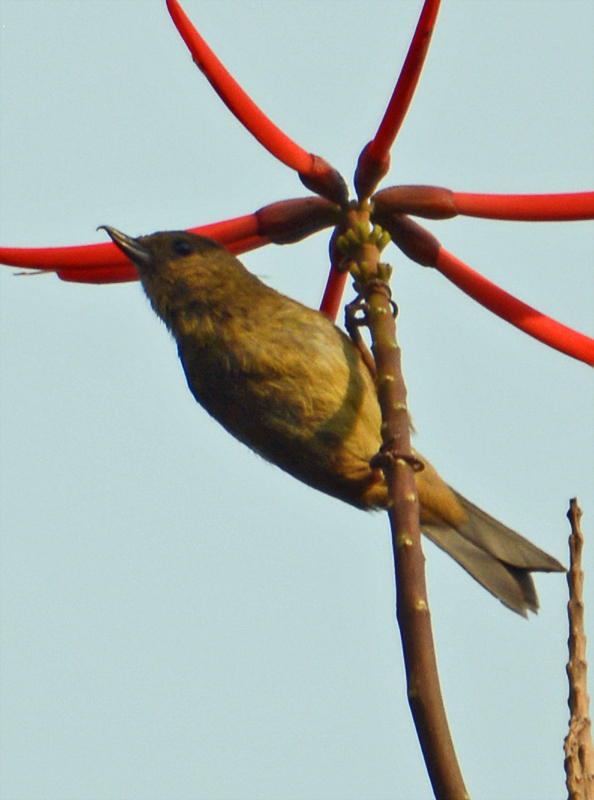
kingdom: Animalia
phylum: Chordata
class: Aves
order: Passeriformes
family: Thraupidae
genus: Diglossa
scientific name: Diglossa baritula
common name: Cinnamon-bellied flowerpiercer
